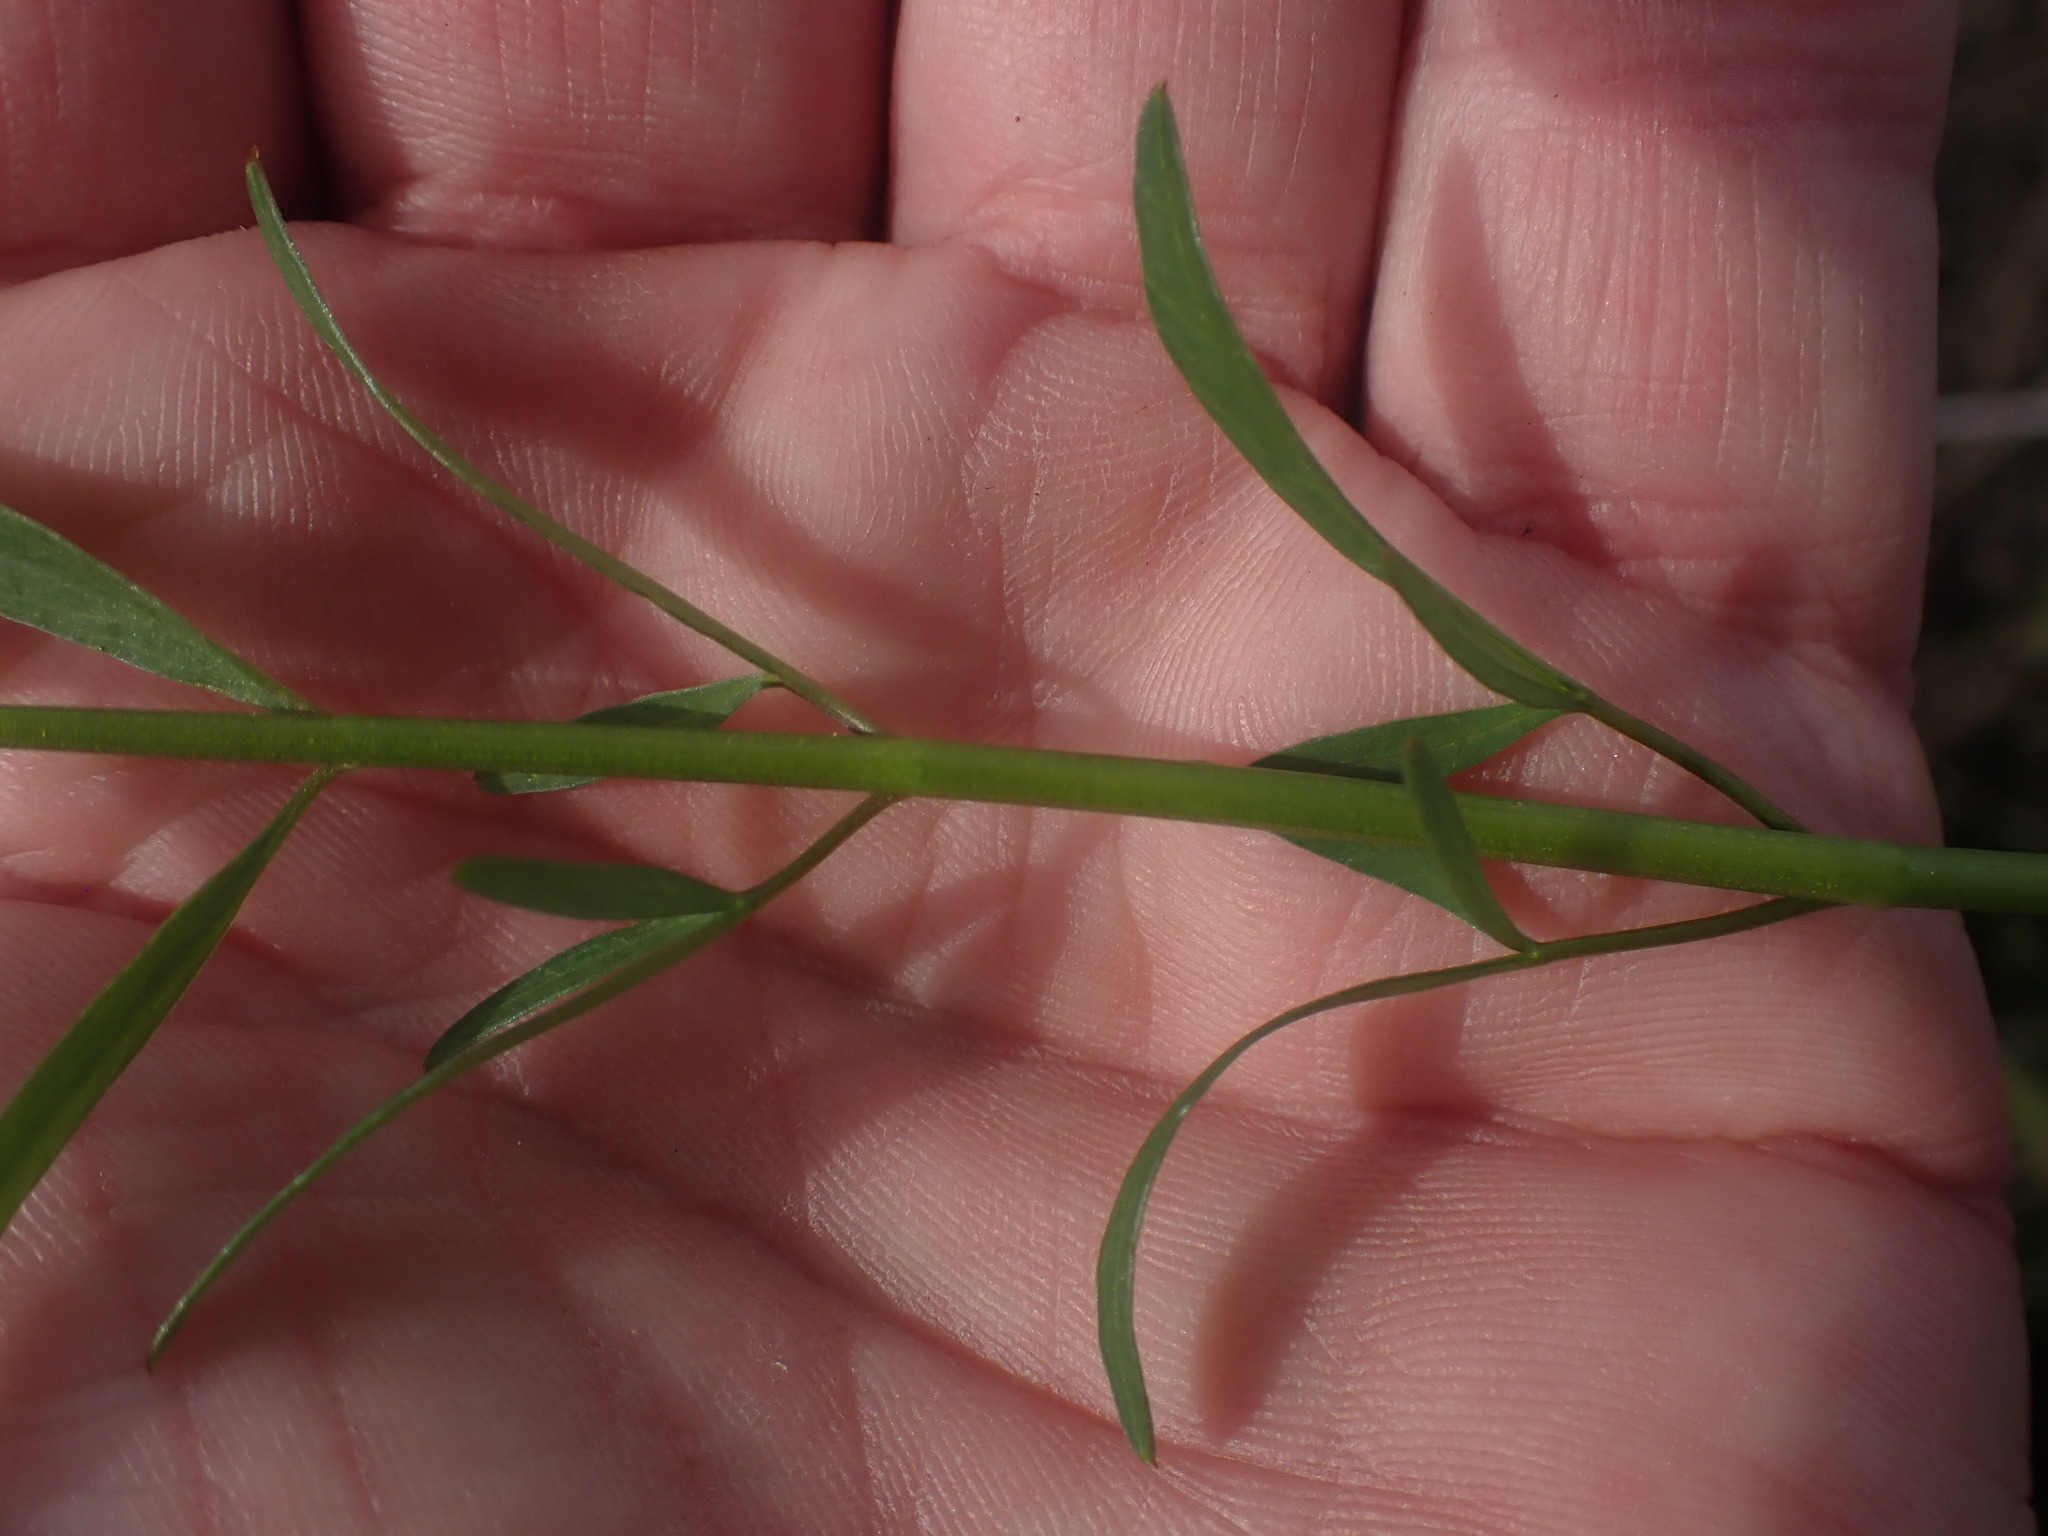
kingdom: Plantae
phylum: Tracheophyta
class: Magnoliopsida
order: Apiales
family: Apiaceae
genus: Perideridia
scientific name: Perideridia gairdneri
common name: False caraway
